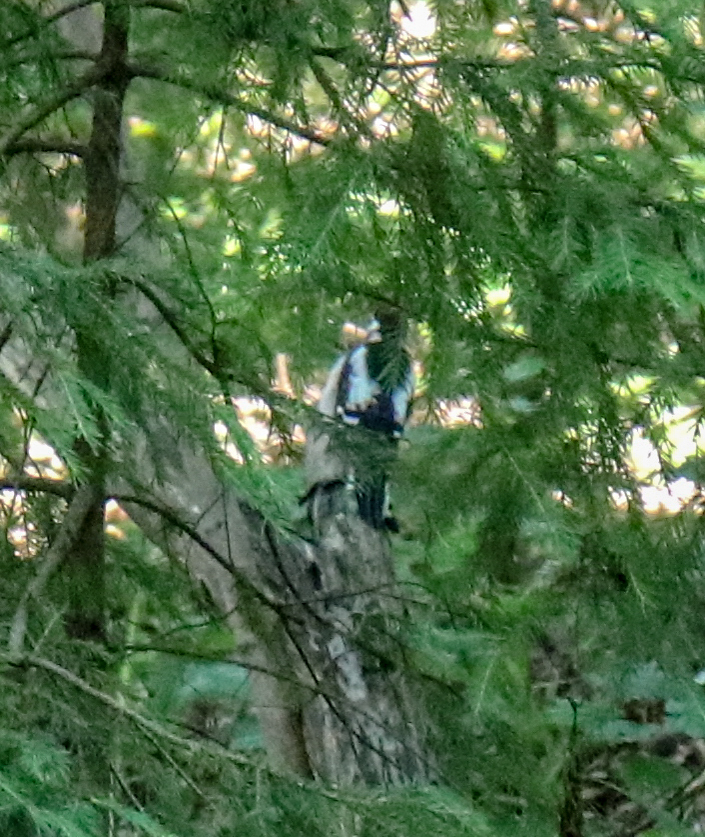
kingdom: Animalia
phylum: Chordata
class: Aves
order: Piciformes
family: Picidae
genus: Dendrocopos
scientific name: Dendrocopos major
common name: Great spotted woodpecker
